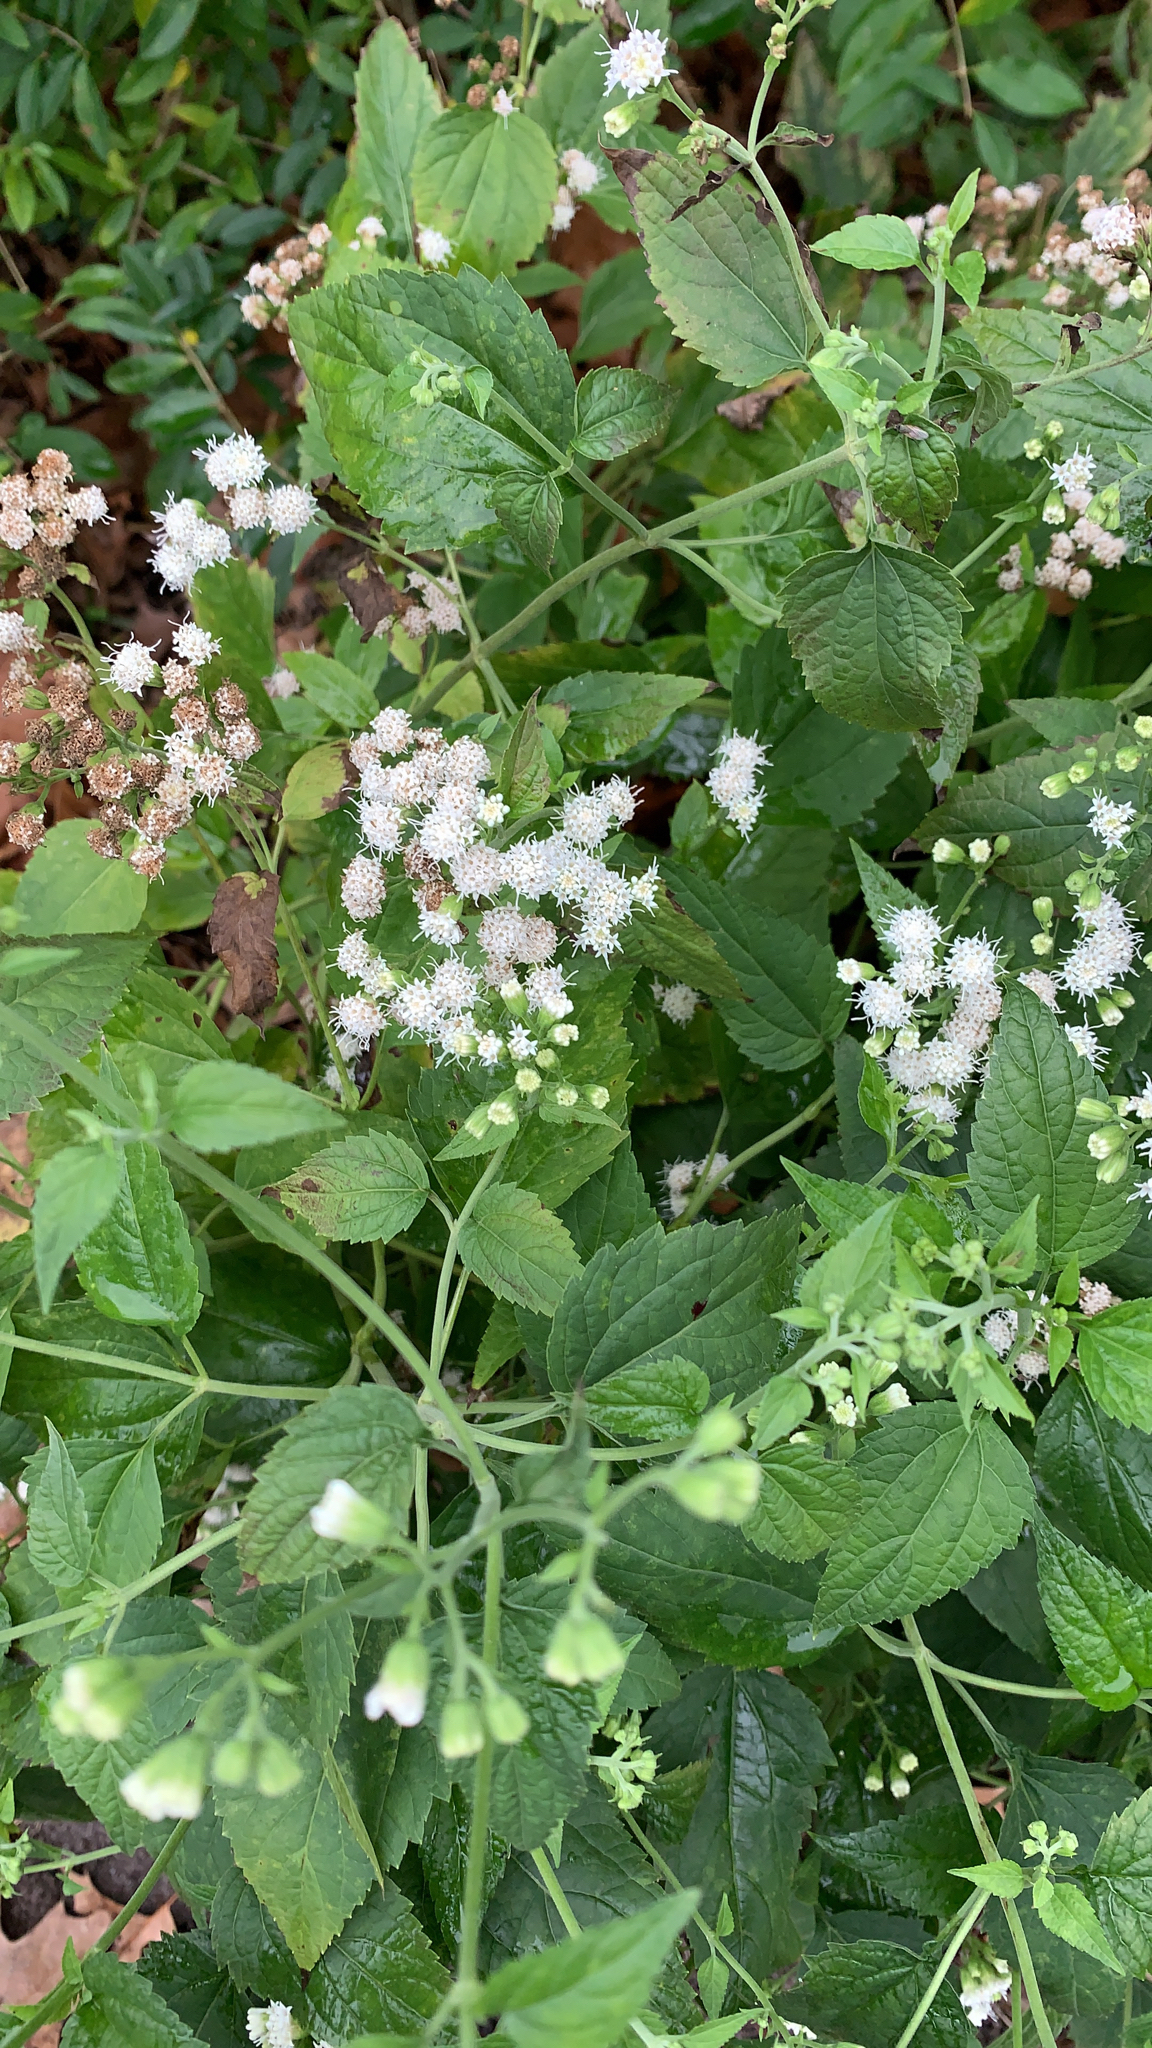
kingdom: Plantae
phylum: Tracheophyta
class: Magnoliopsida
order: Asterales
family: Asteraceae
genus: Ageratina
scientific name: Ageratina altissima
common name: White snakeroot
